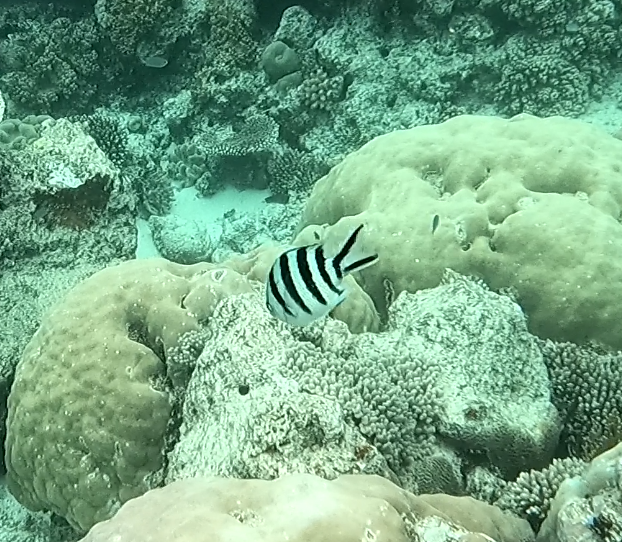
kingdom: Animalia
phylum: Chordata
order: Perciformes
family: Pomacentridae
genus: Abudefduf
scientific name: Abudefduf sexfasciatus
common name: Scissortail sergeant
